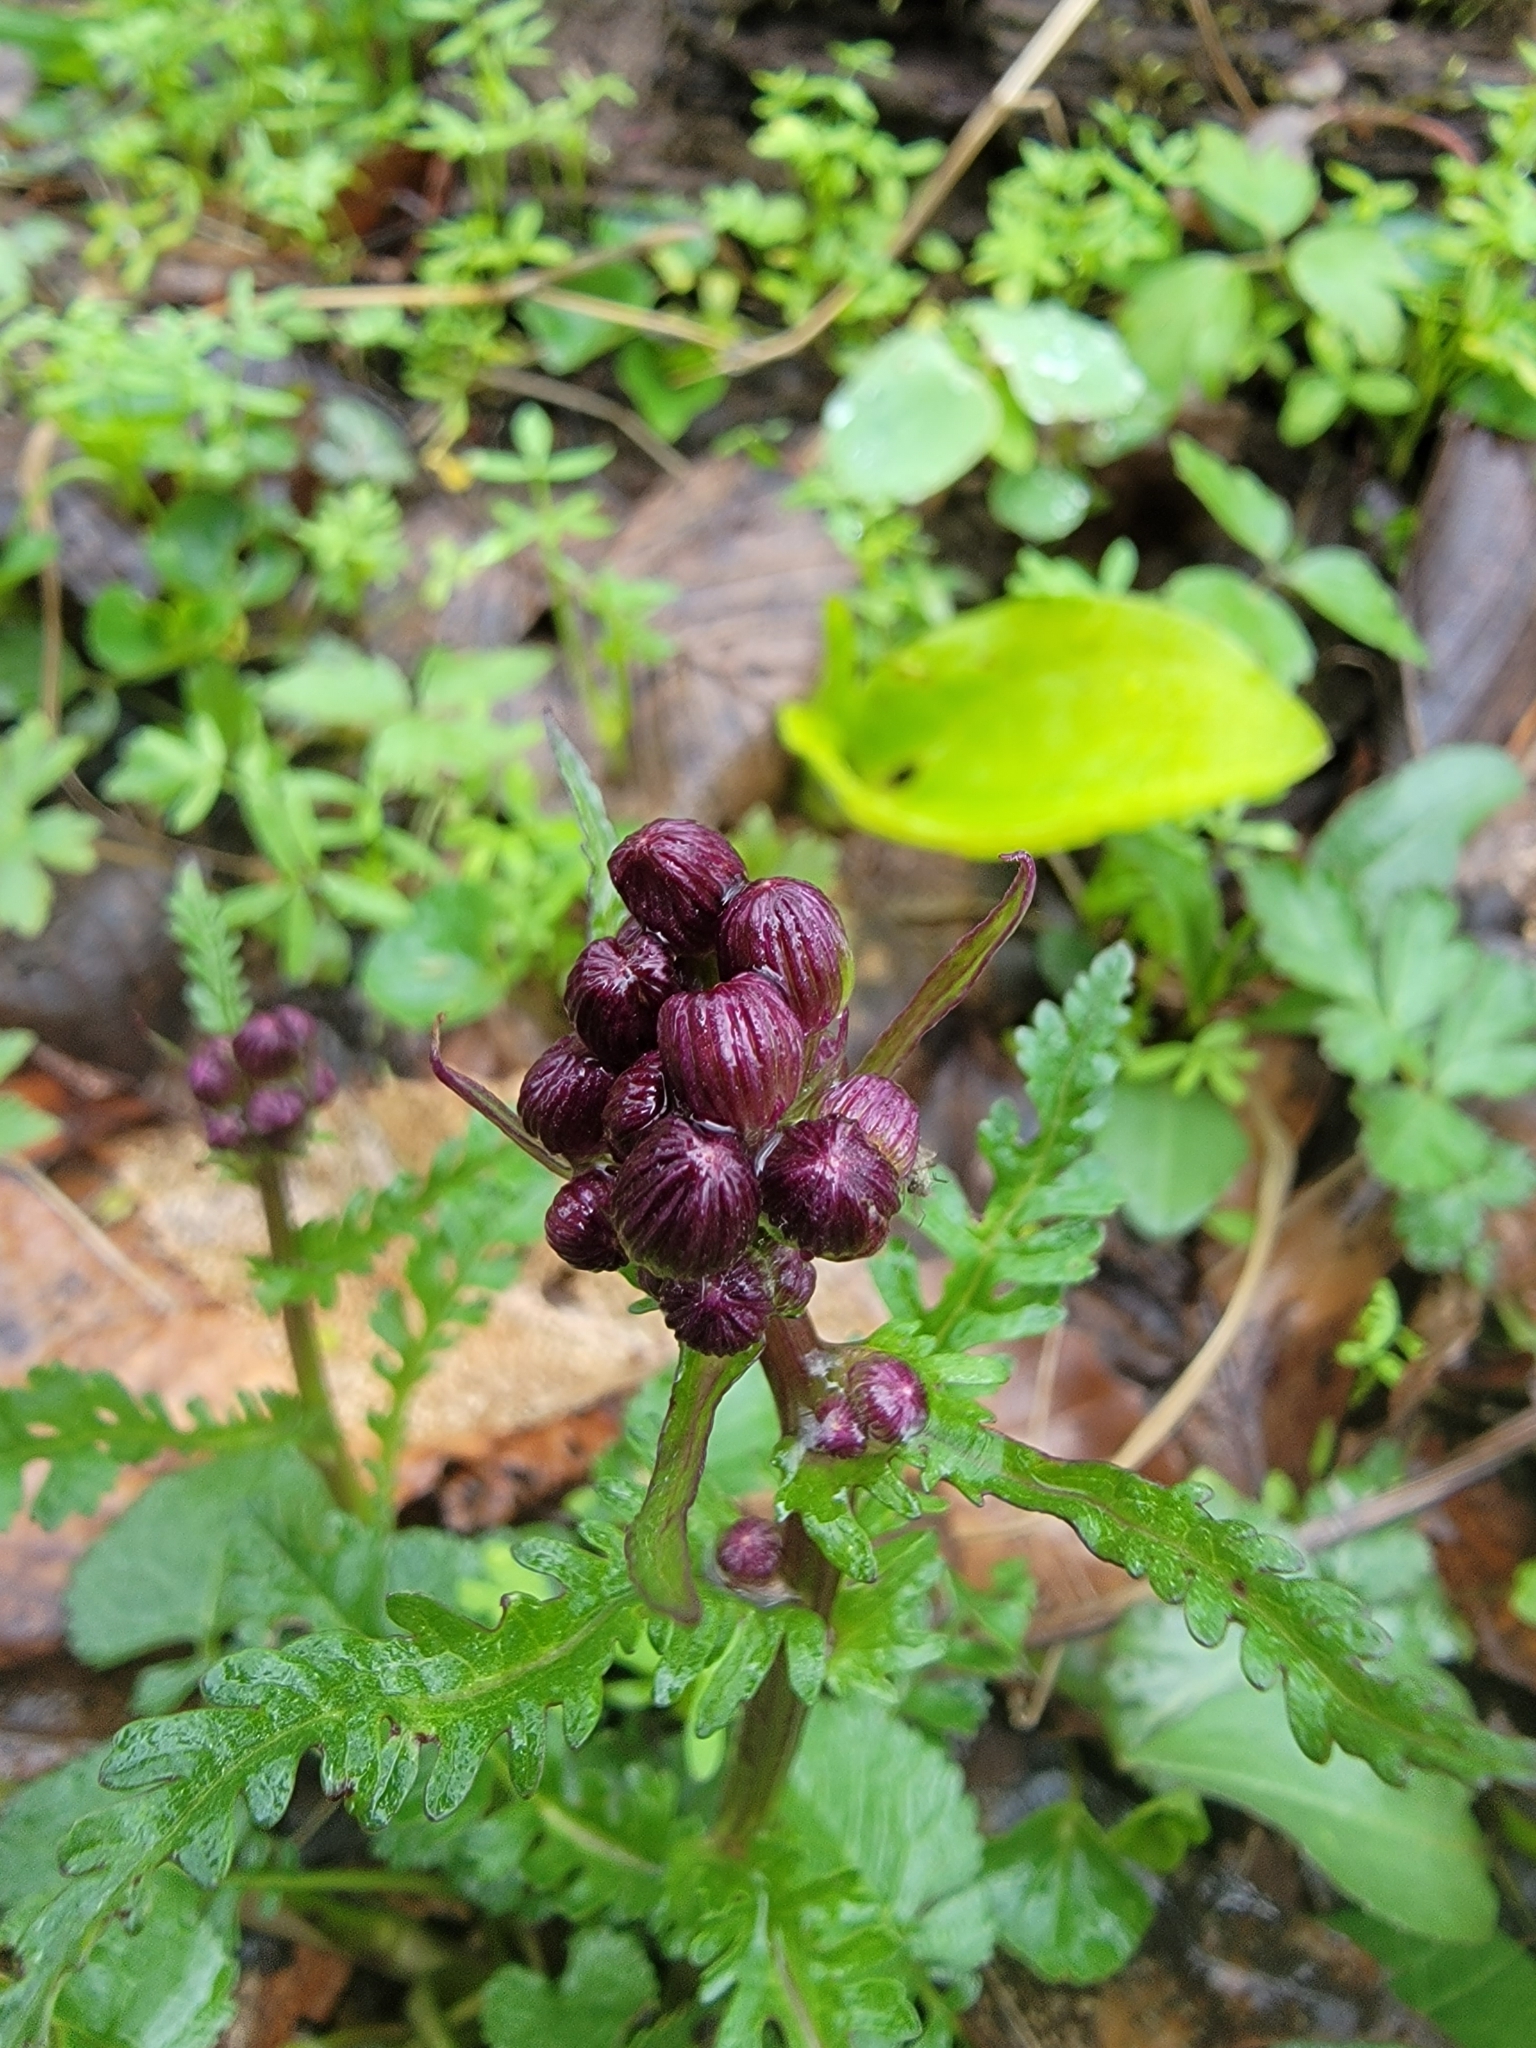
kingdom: Plantae
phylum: Tracheophyta
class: Magnoliopsida
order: Asterales
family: Asteraceae
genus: Packera
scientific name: Packera aurea
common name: Golden groundsel
